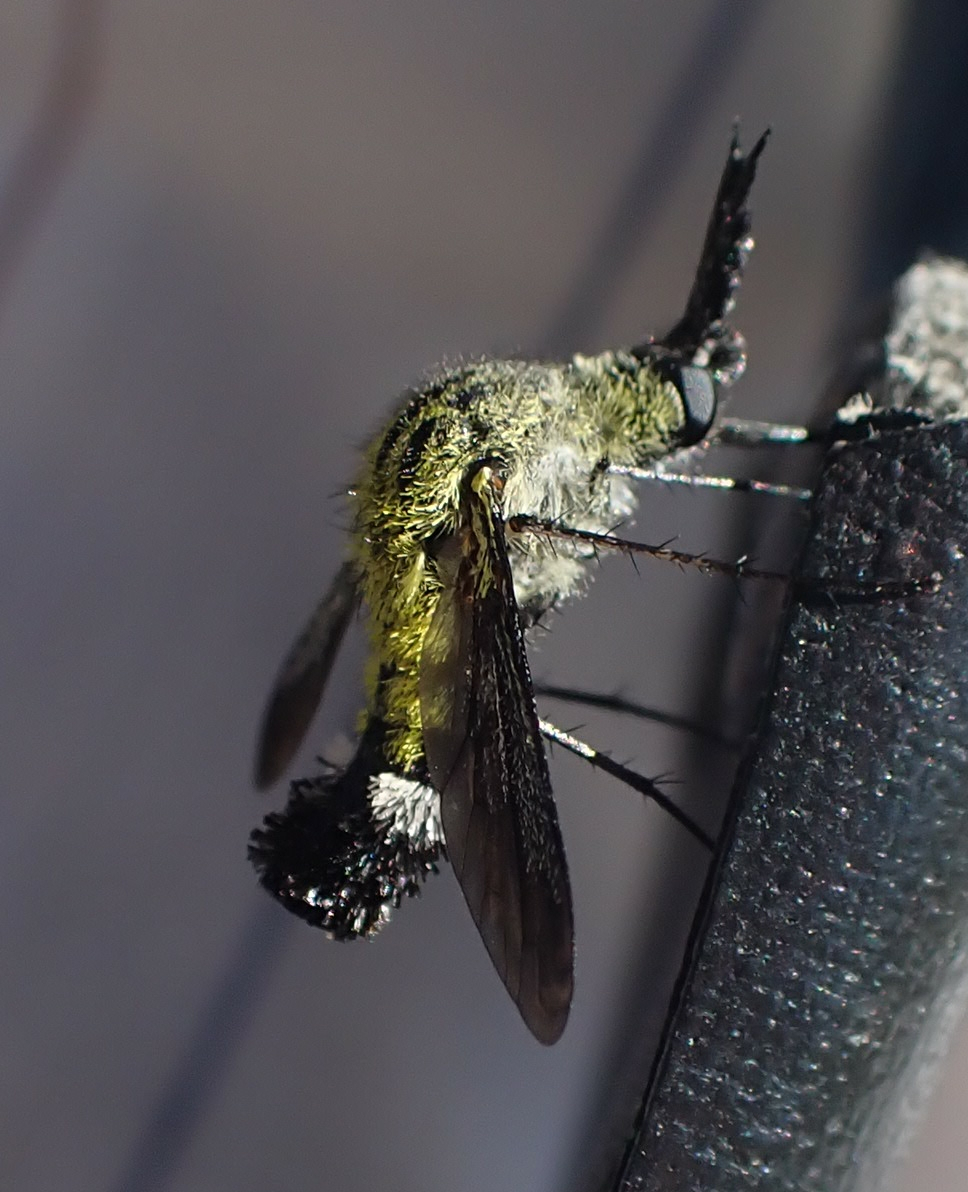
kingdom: Animalia
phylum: Arthropoda
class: Insecta
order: Diptera
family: Bombyliidae
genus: Lepidophora
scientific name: Lepidophora lutea
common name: Hunchback bee fly
